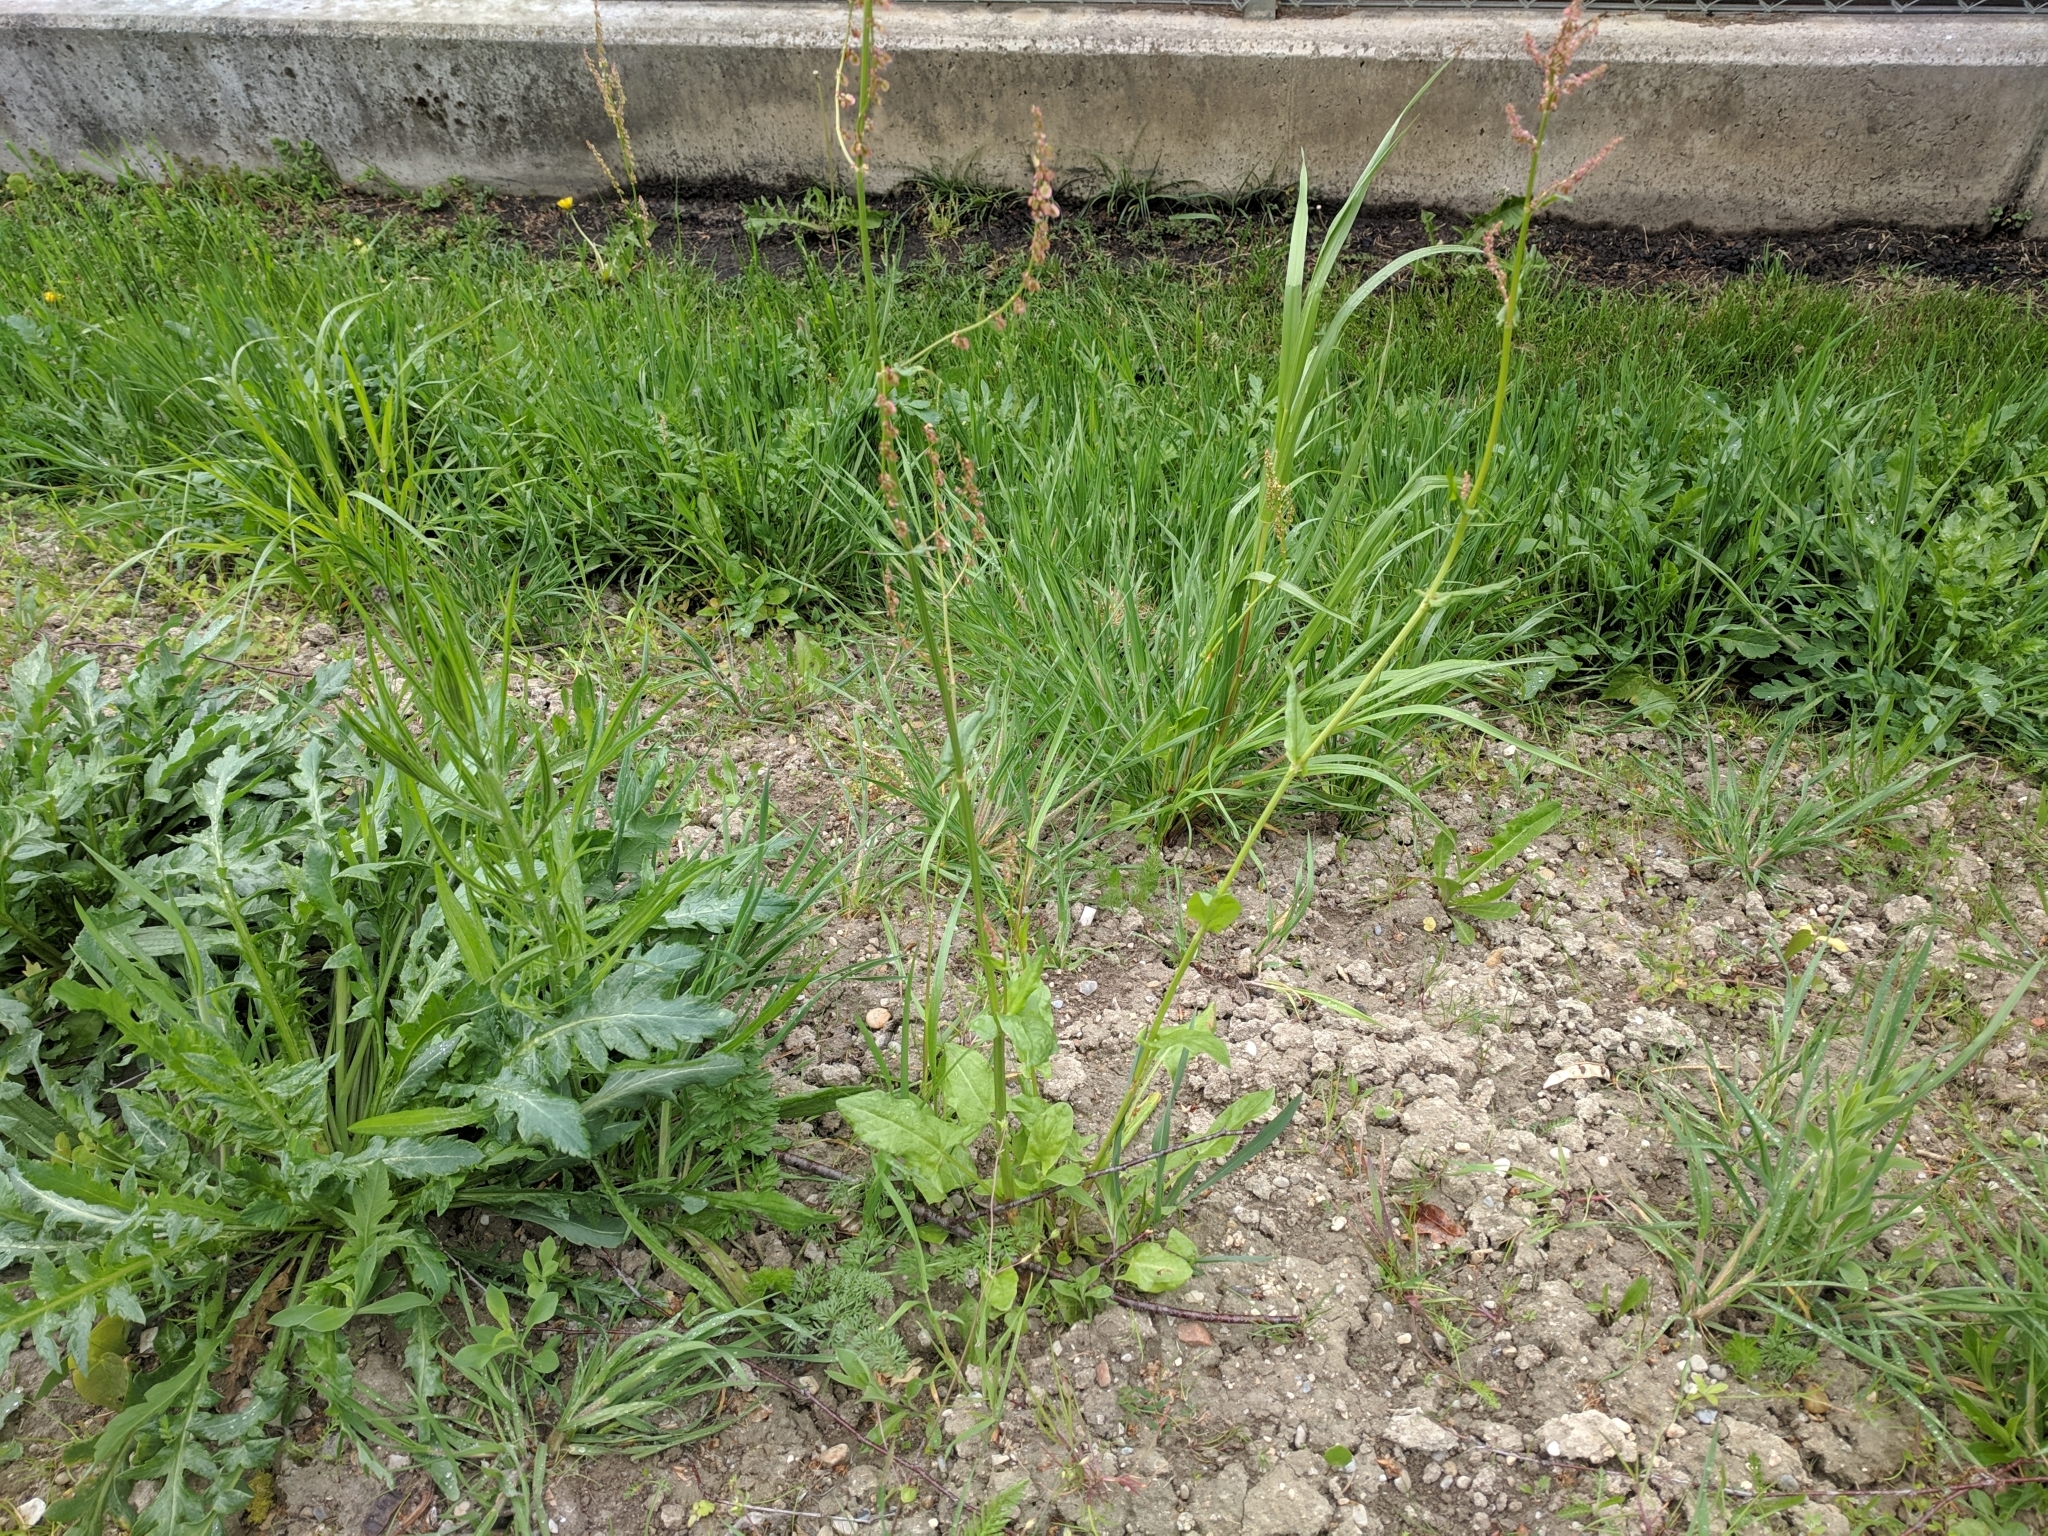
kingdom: Plantae
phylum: Tracheophyta
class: Magnoliopsida
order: Caryophyllales
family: Polygonaceae
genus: Rumex
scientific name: Rumex acetosa
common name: Garden sorrel
